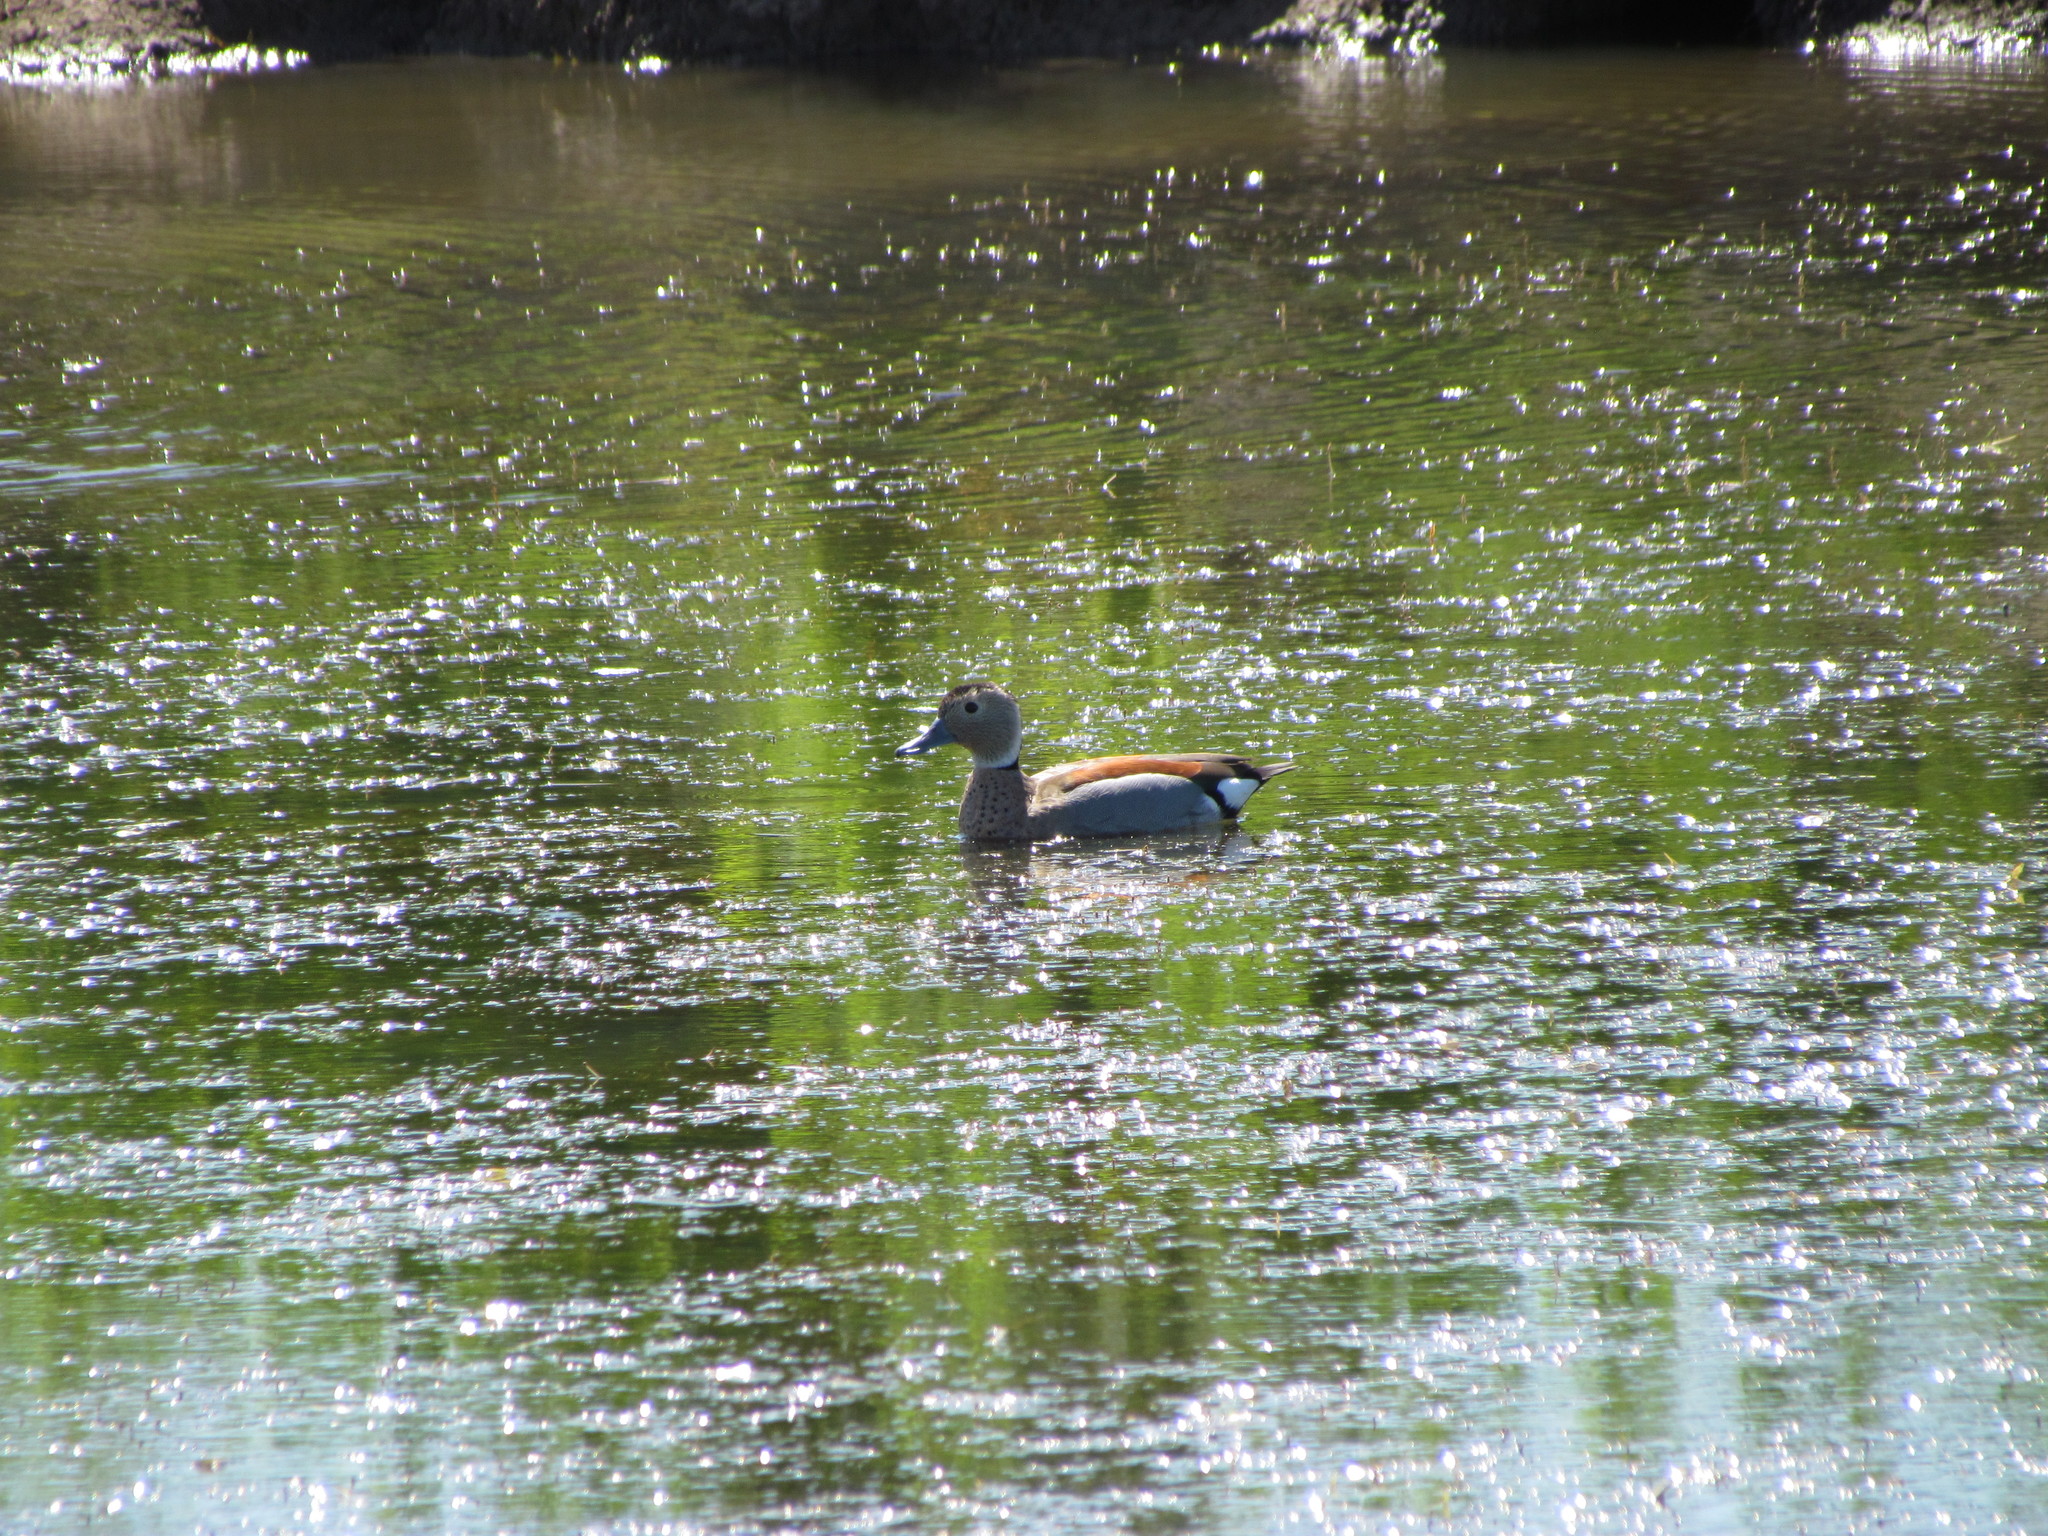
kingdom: Animalia
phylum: Chordata
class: Aves
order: Anseriformes
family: Anatidae
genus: Callonetta
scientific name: Callonetta leucophrys
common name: Ringed teal
